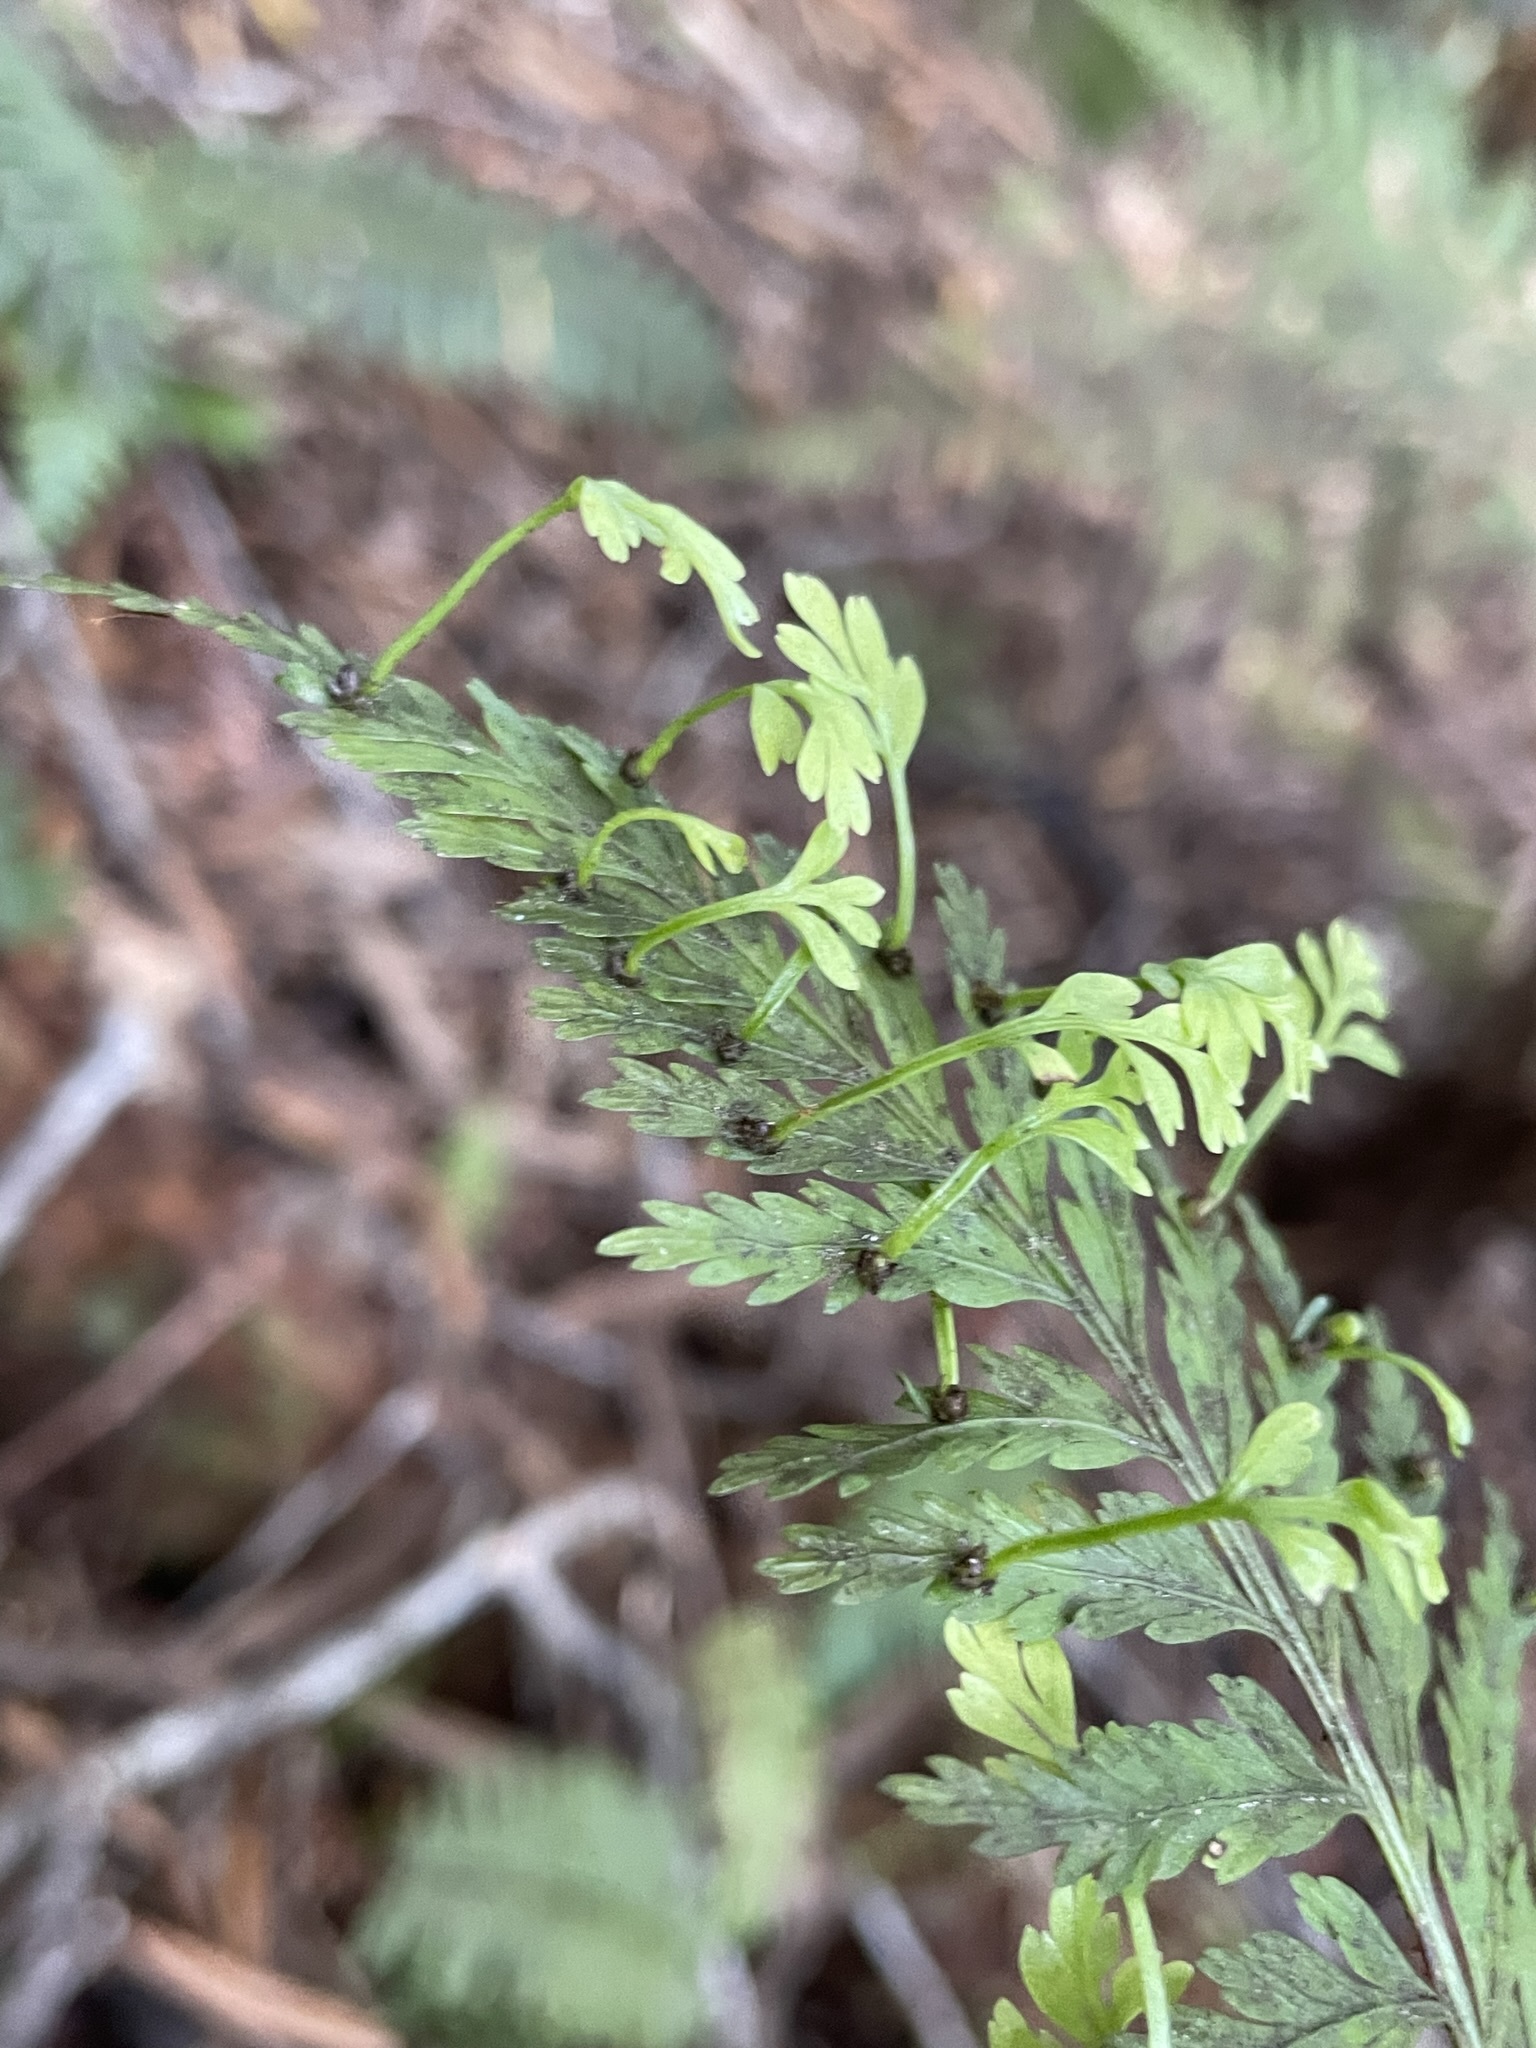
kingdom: Plantae
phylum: Tracheophyta
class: Polypodiopsida
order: Polypodiales
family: Aspleniaceae
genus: Asplenium
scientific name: Asplenium bulbiferum
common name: Mother fern
